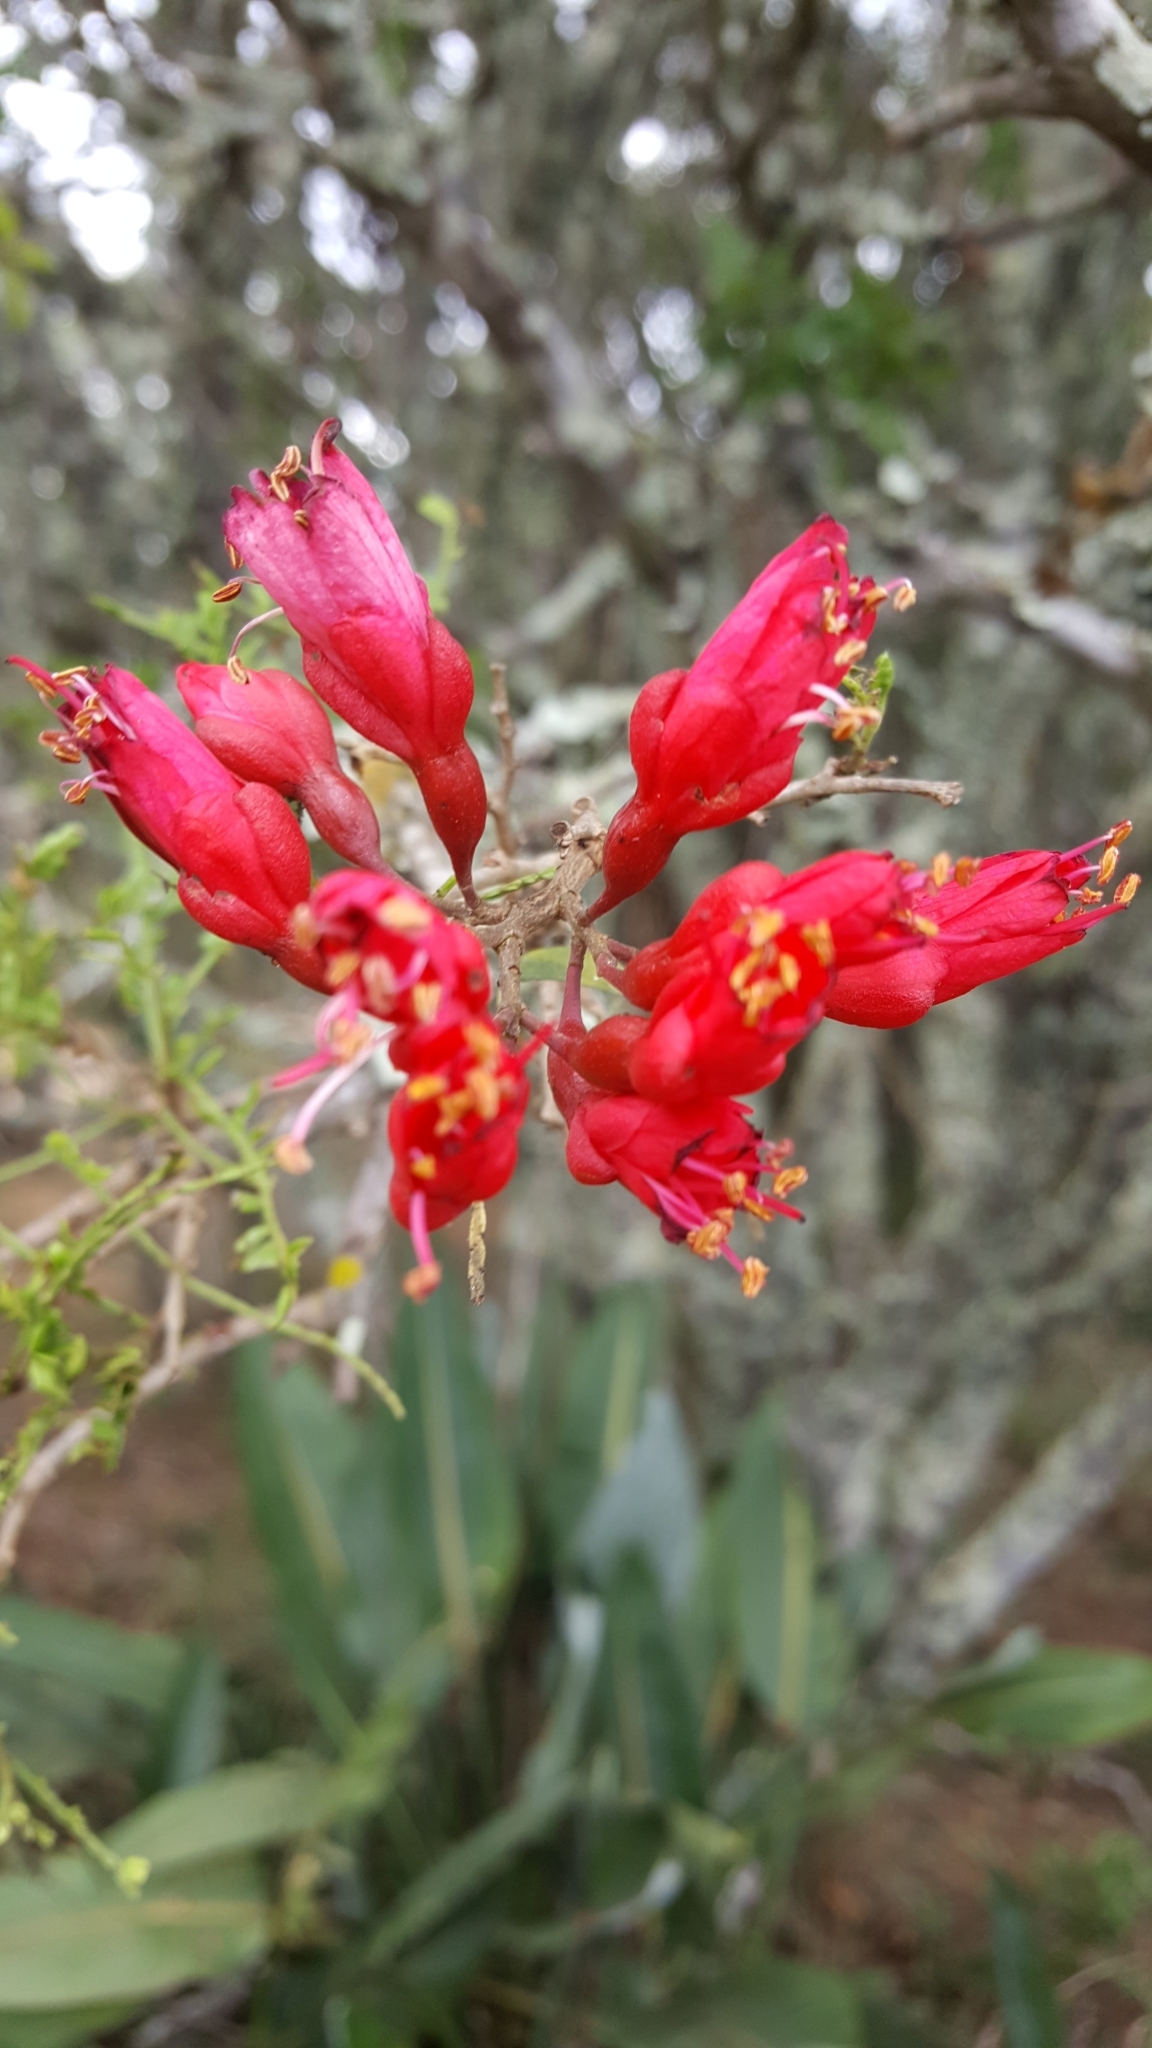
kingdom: Plantae
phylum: Tracheophyta
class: Magnoliopsida
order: Fabales
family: Fabaceae
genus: Schotia
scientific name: Schotia afra
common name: Hottentot's bean
